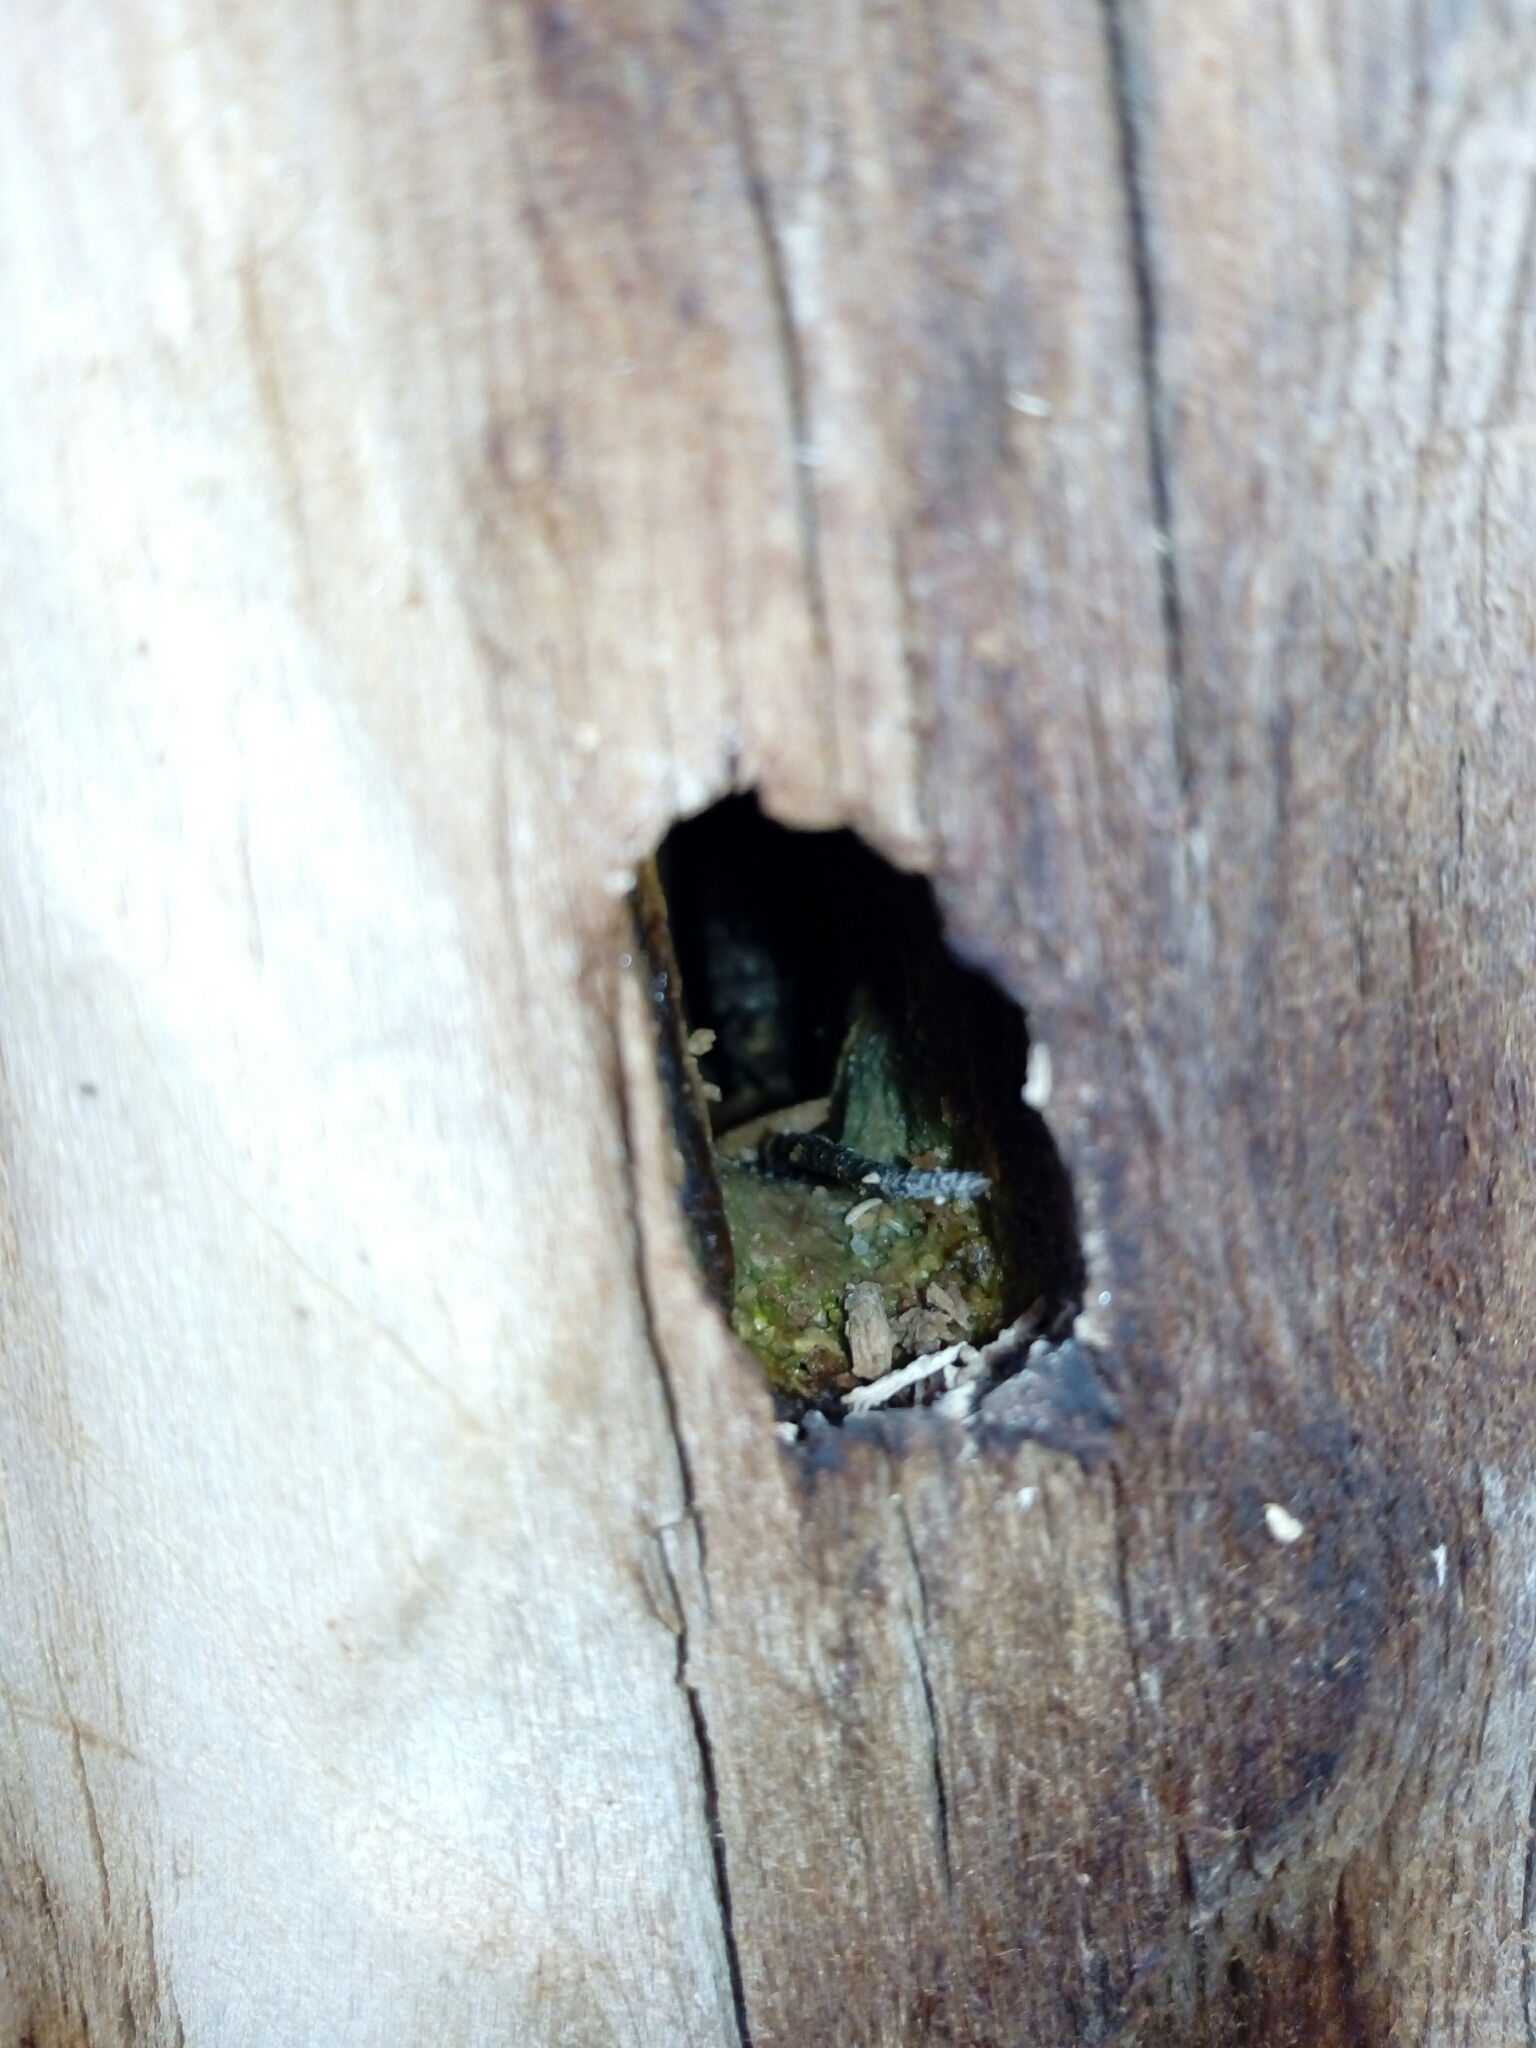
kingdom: Animalia
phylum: Chordata
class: Squamata
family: Lacertidae
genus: Podarcis
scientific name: Podarcis muralis
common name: Common wall lizard
